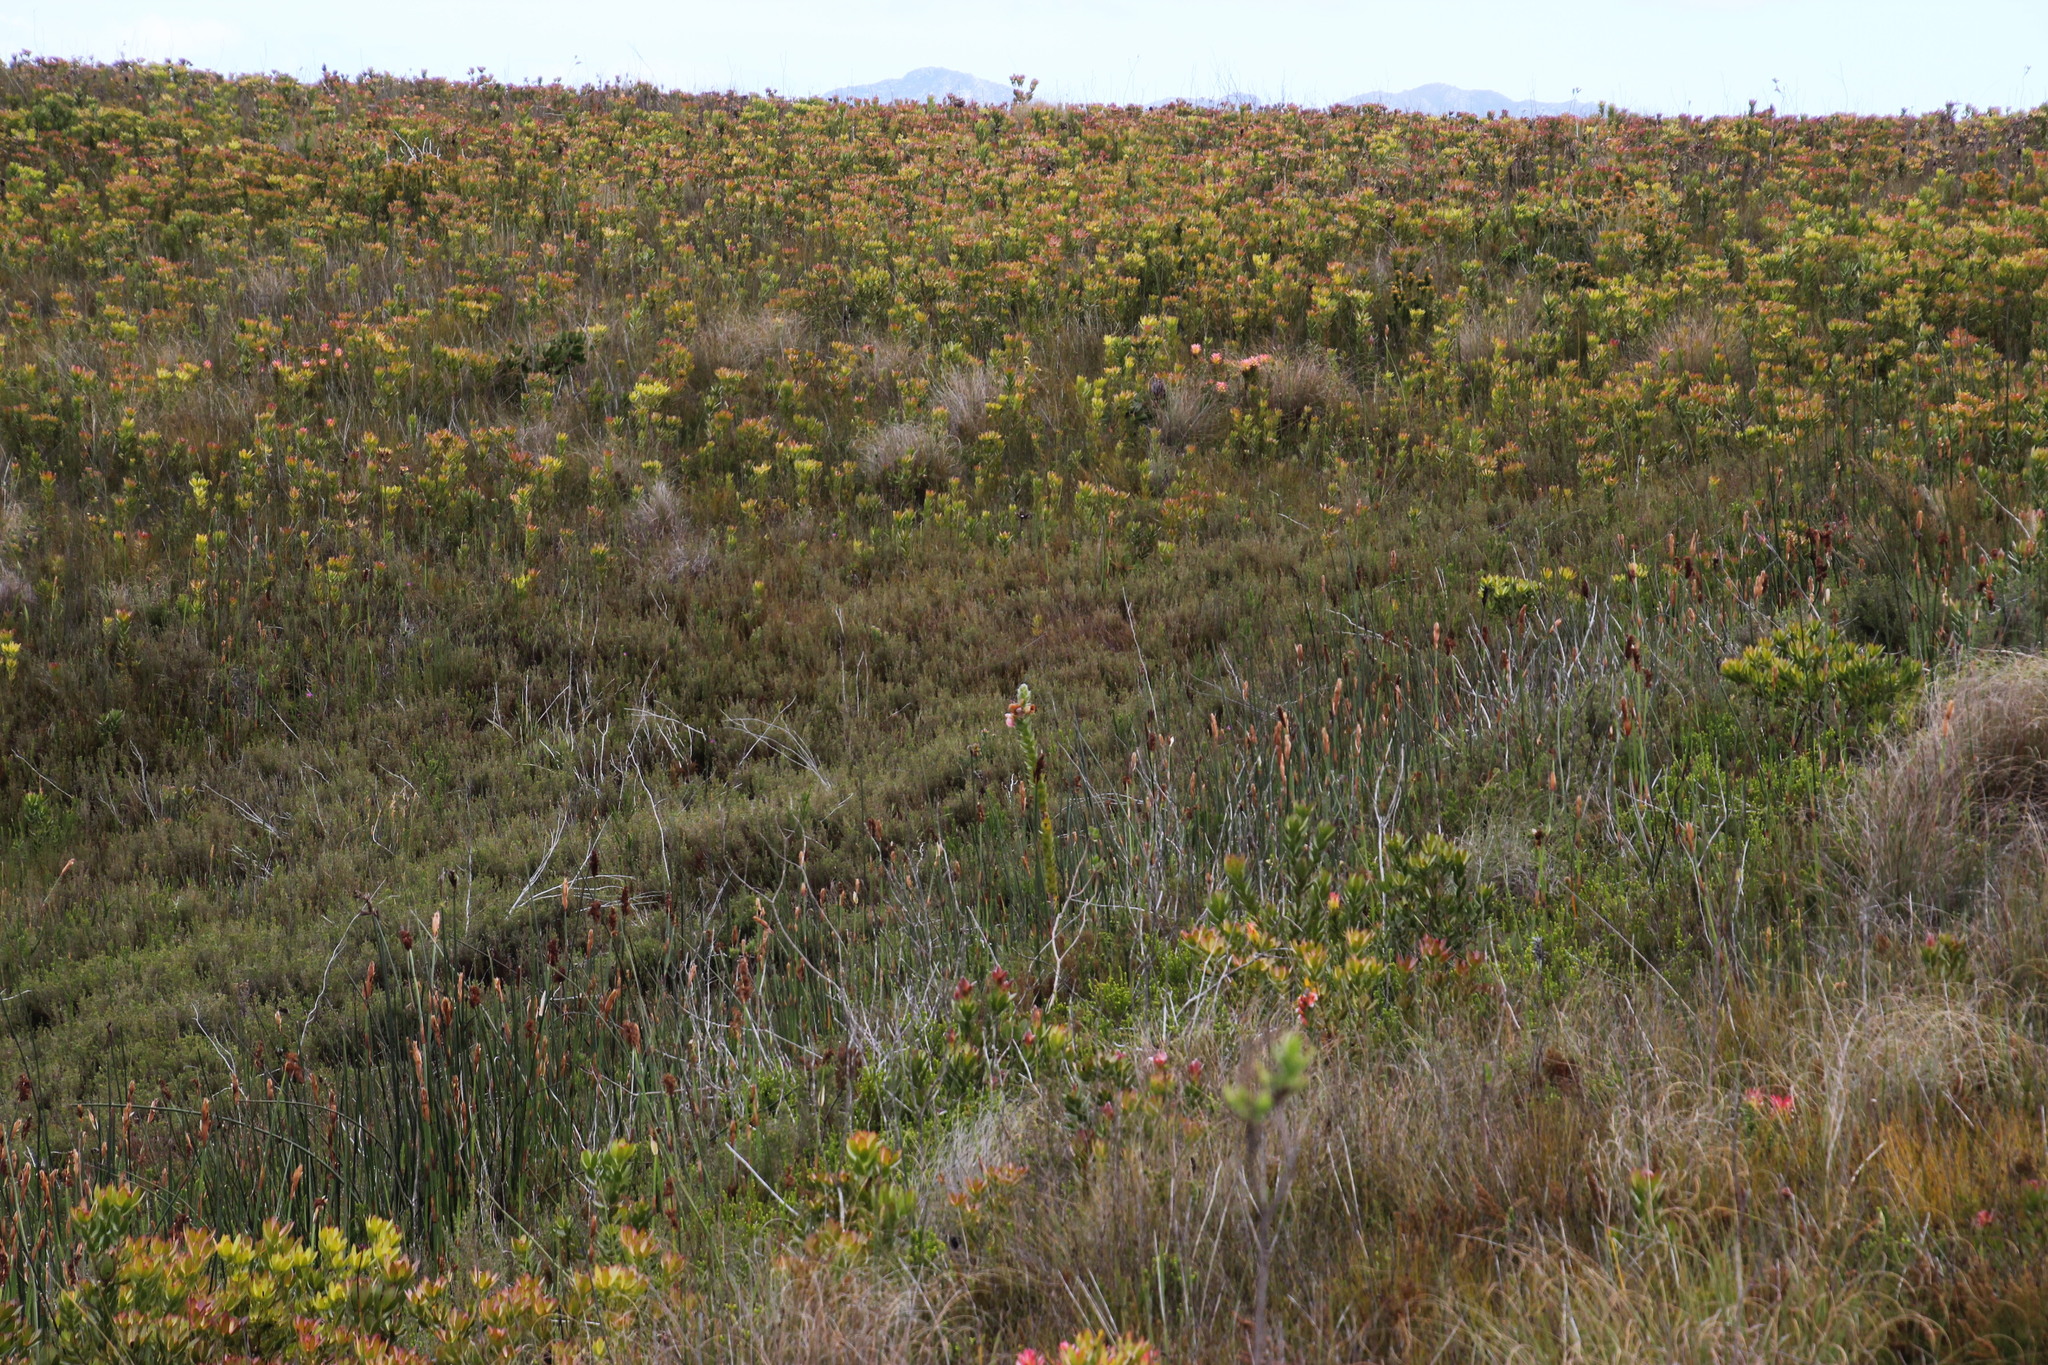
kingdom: Plantae
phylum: Tracheophyta
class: Magnoliopsida
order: Proteales
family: Proteaceae
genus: Orothamnus
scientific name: Orothamnus zeyheri
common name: Marsh rose
